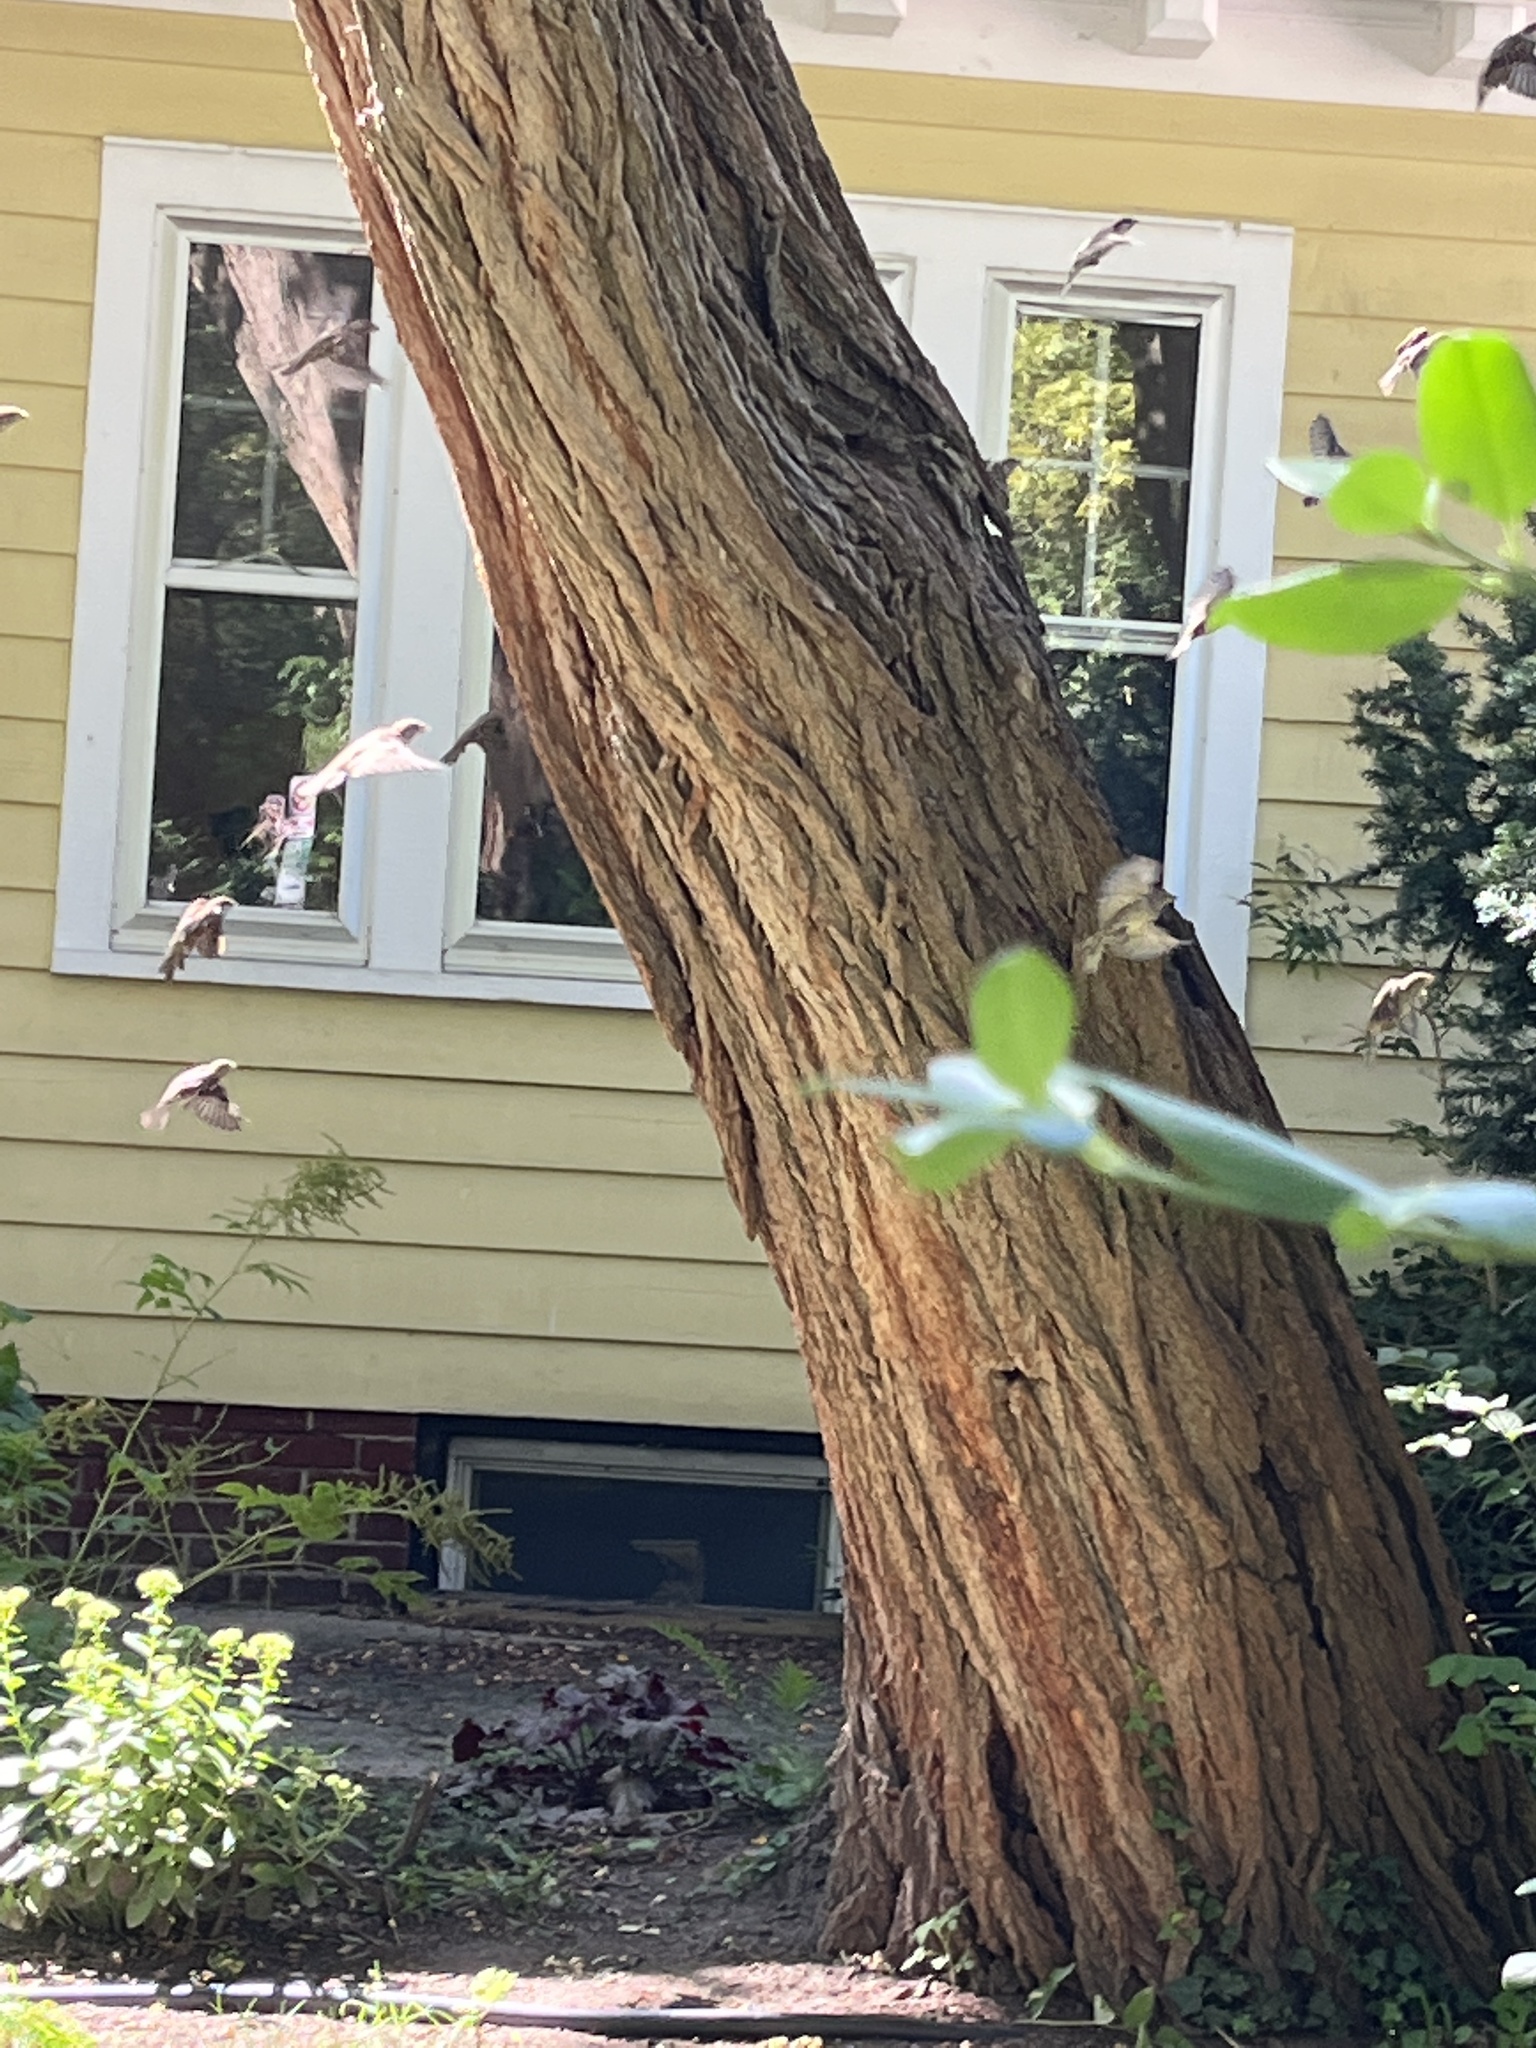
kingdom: Animalia
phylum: Chordata
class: Aves
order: Passeriformes
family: Passeridae
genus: Passer
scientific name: Passer domesticus
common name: House sparrow
